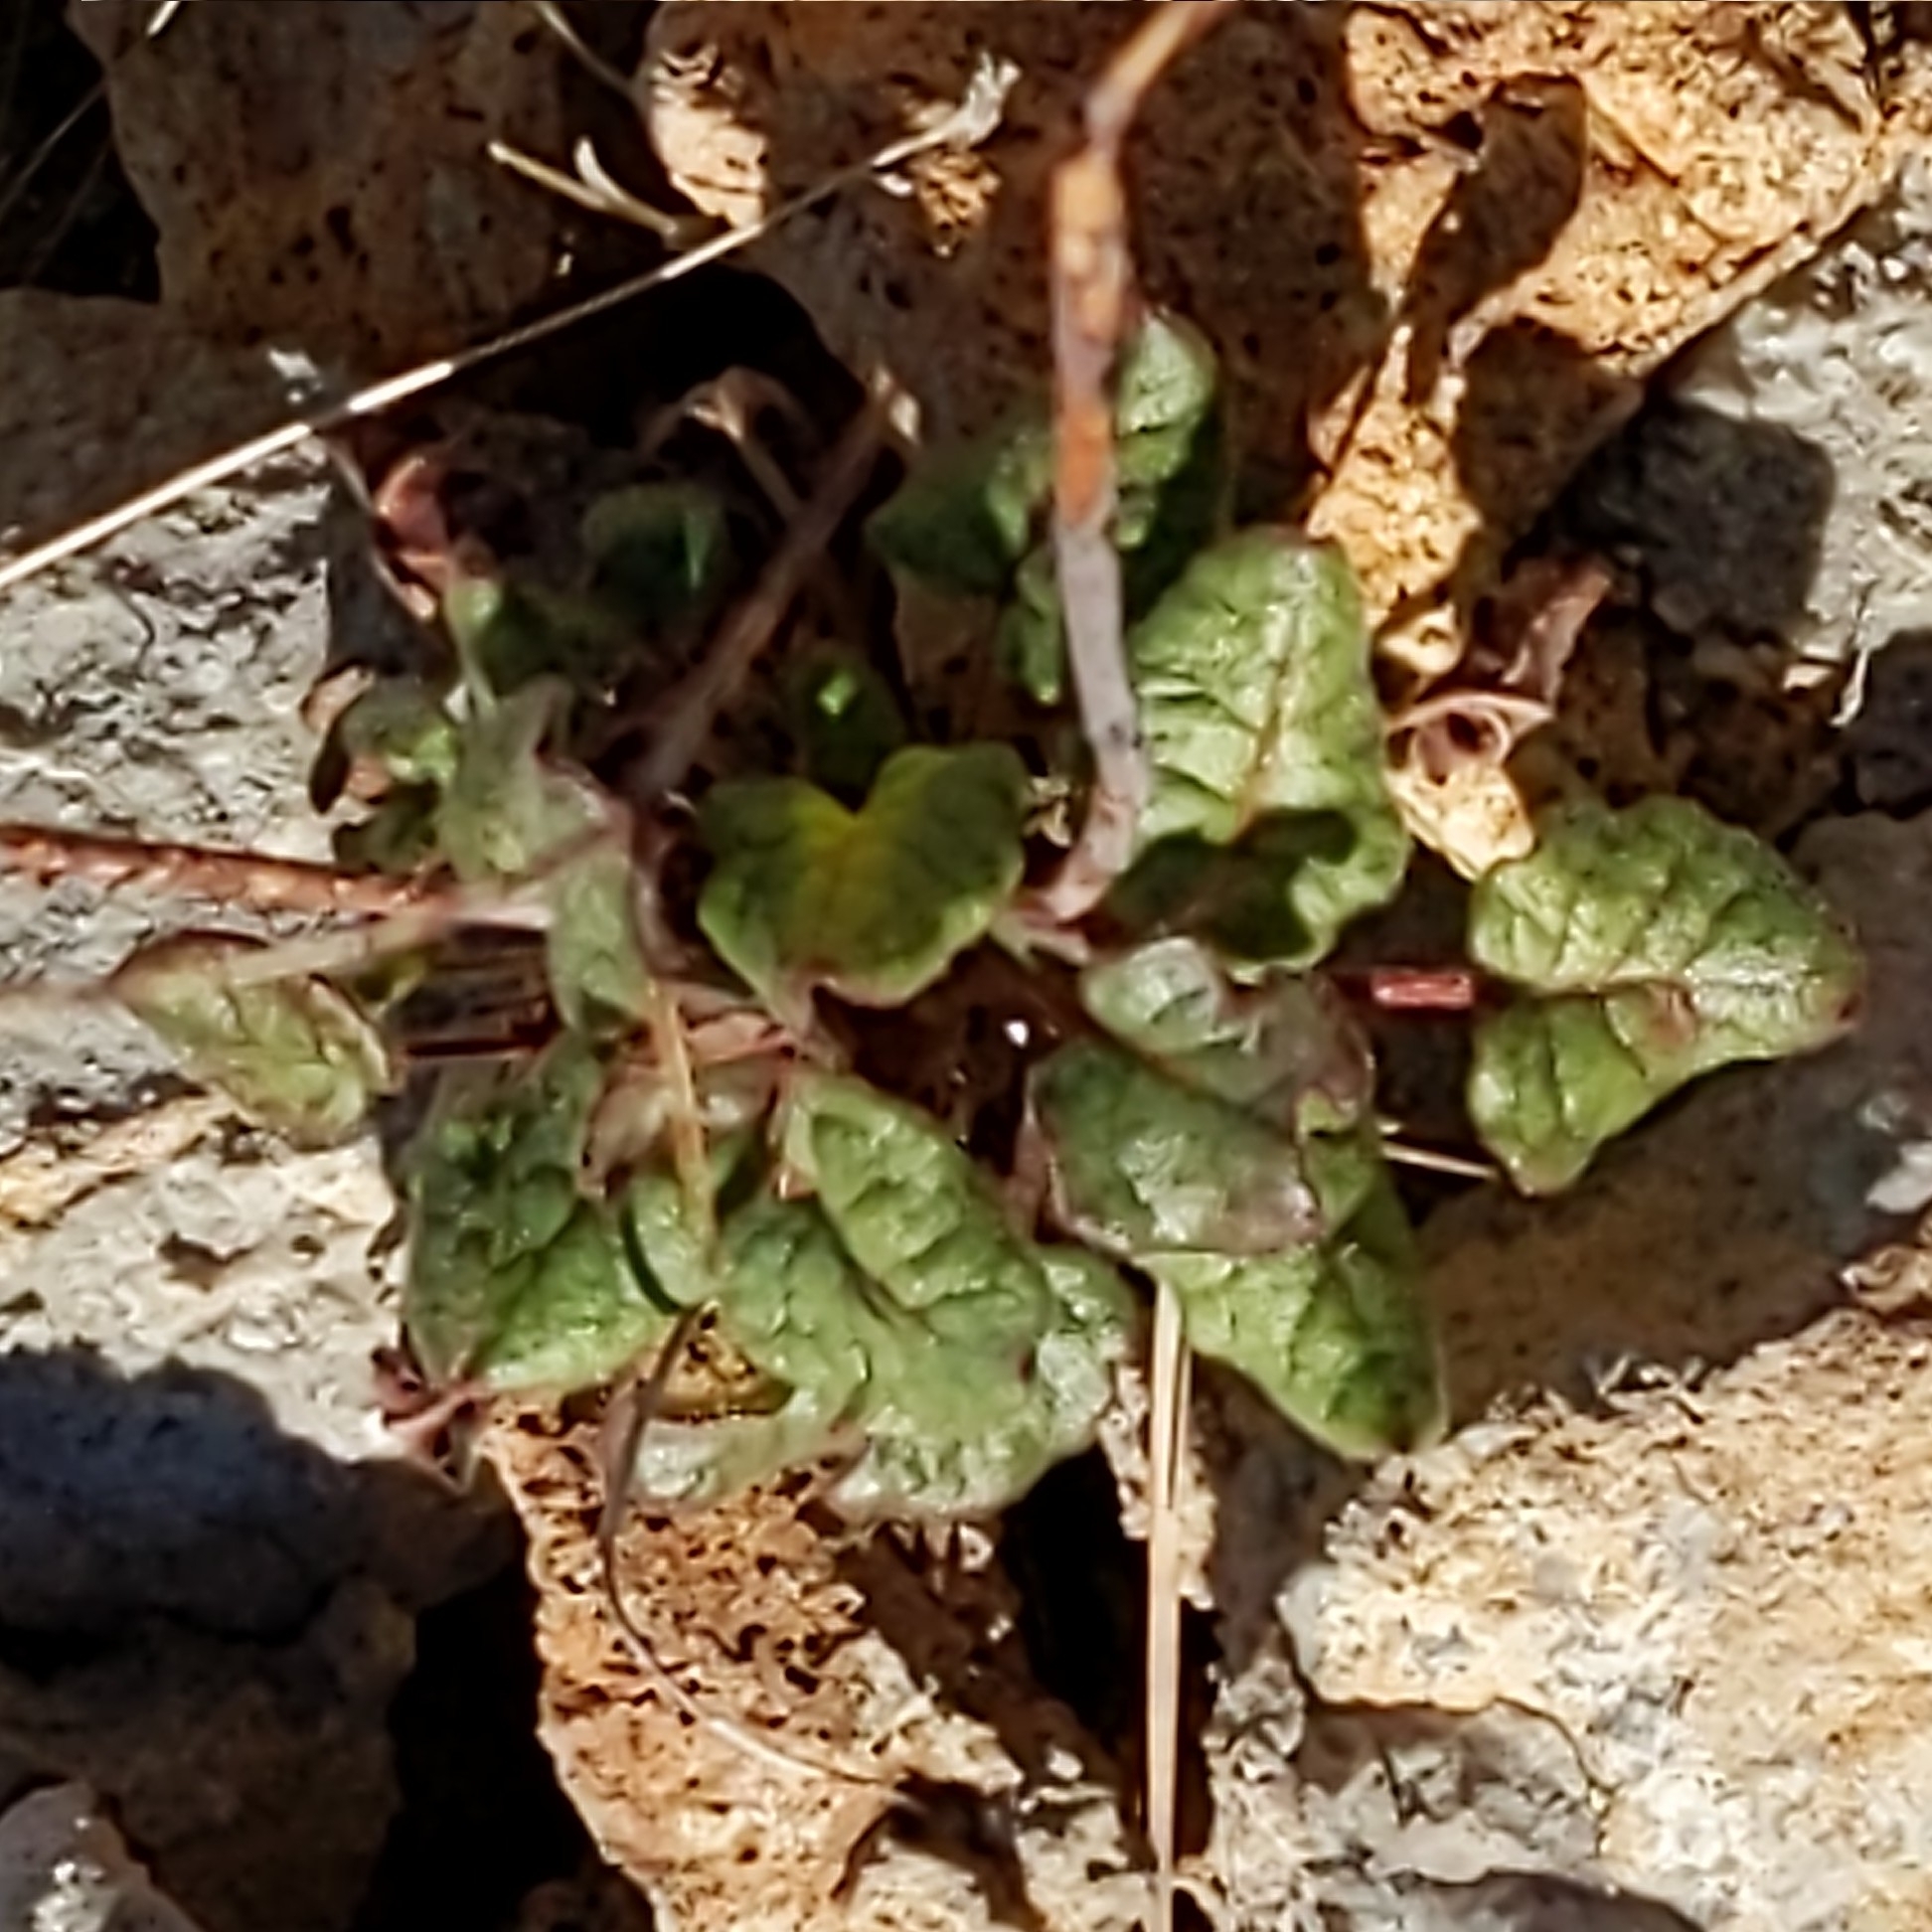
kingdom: Plantae
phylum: Tracheophyta
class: Magnoliopsida
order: Caryophyllales
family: Polygonaceae
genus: Eriogonum
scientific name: Eriogonum trichopes
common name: Little desert trumpet
